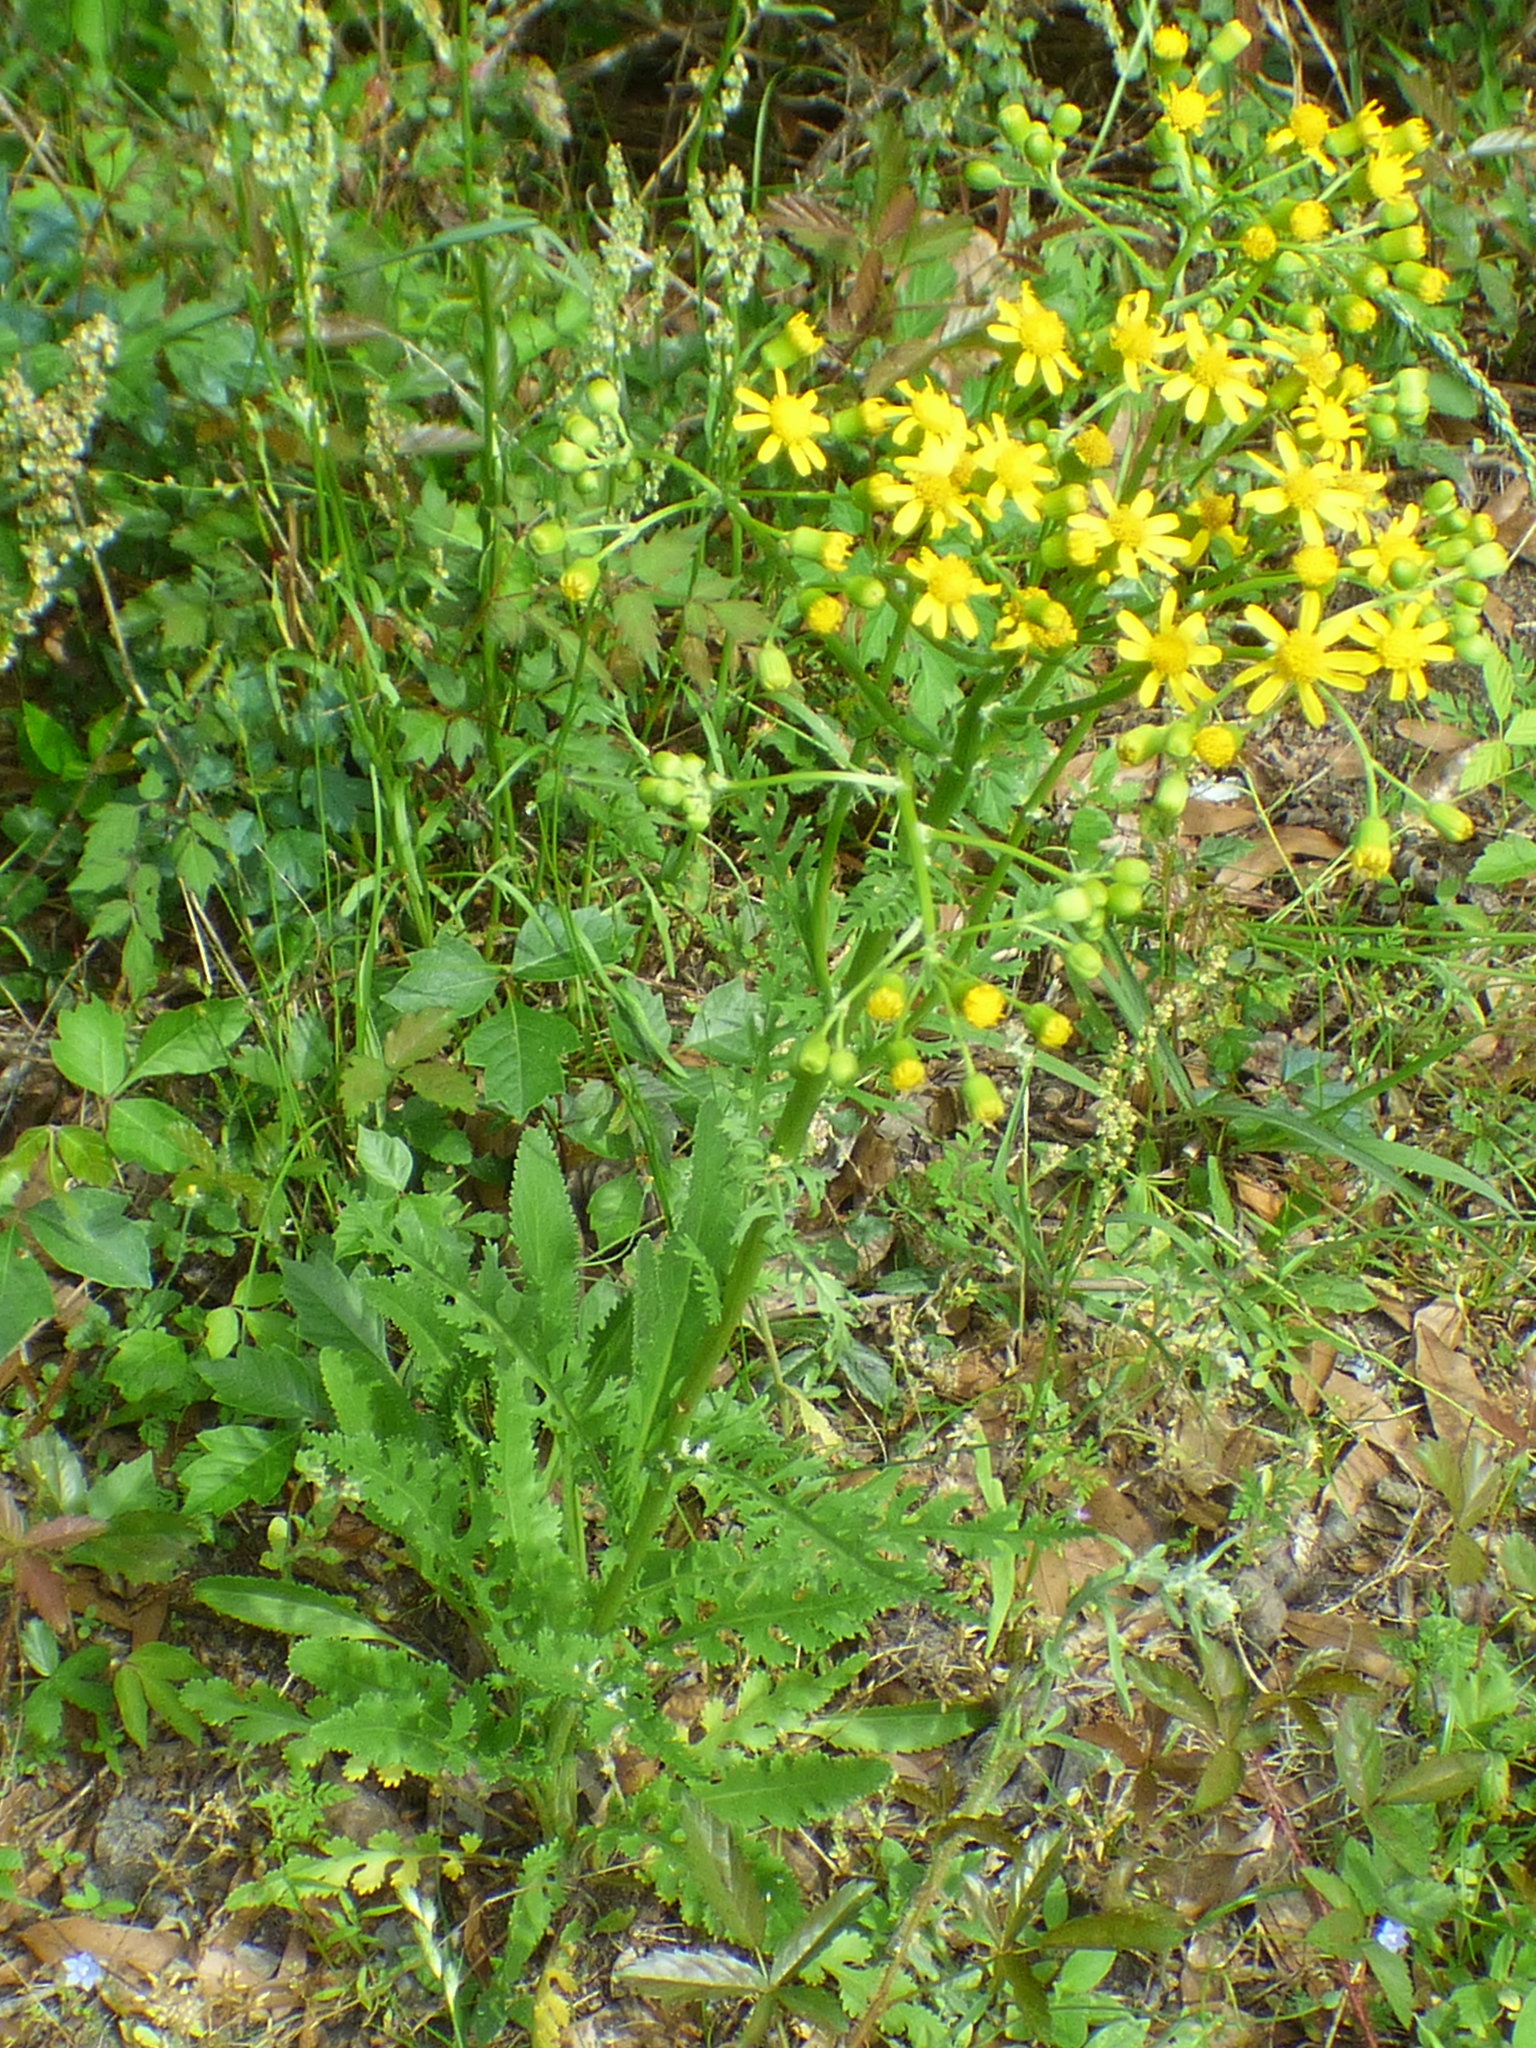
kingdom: Plantae
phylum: Tracheophyta
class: Magnoliopsida
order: Asterales
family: Asteraceae
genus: Packera
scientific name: Packera anonyma
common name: Small ragwort
